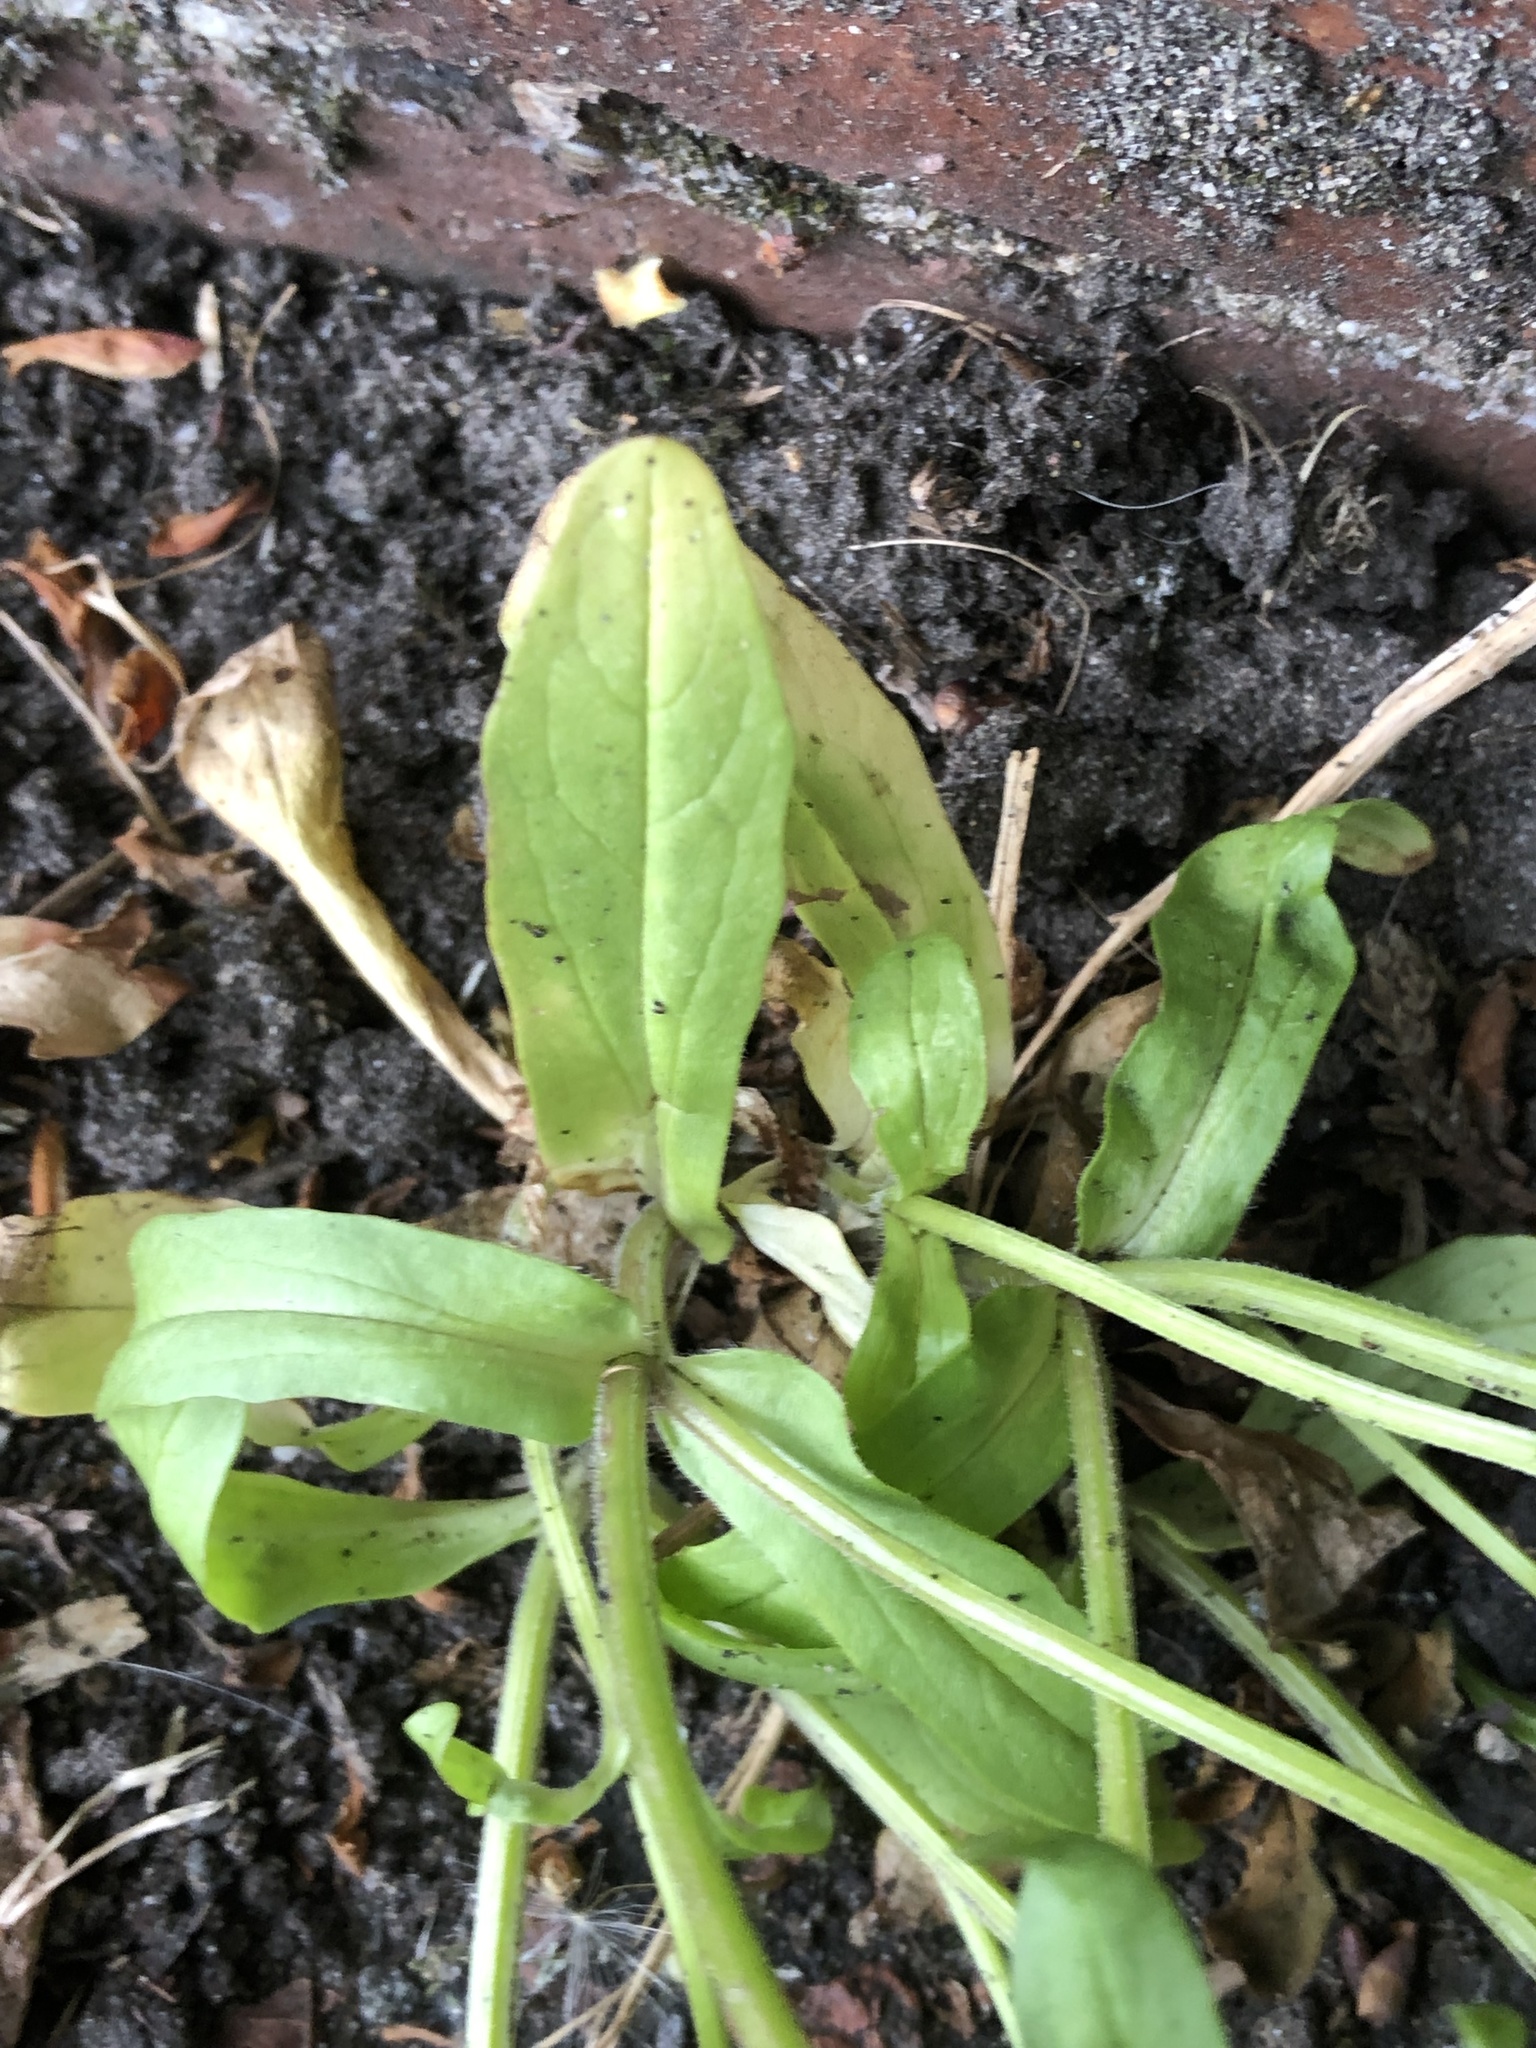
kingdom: Plantae
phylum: Tracheophyta
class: Magnoliopsida
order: Dipsacales
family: Caprifoliaceae
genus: Valerianella
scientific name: Valerianella carinata
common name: Keeled-fruited cornsalad
